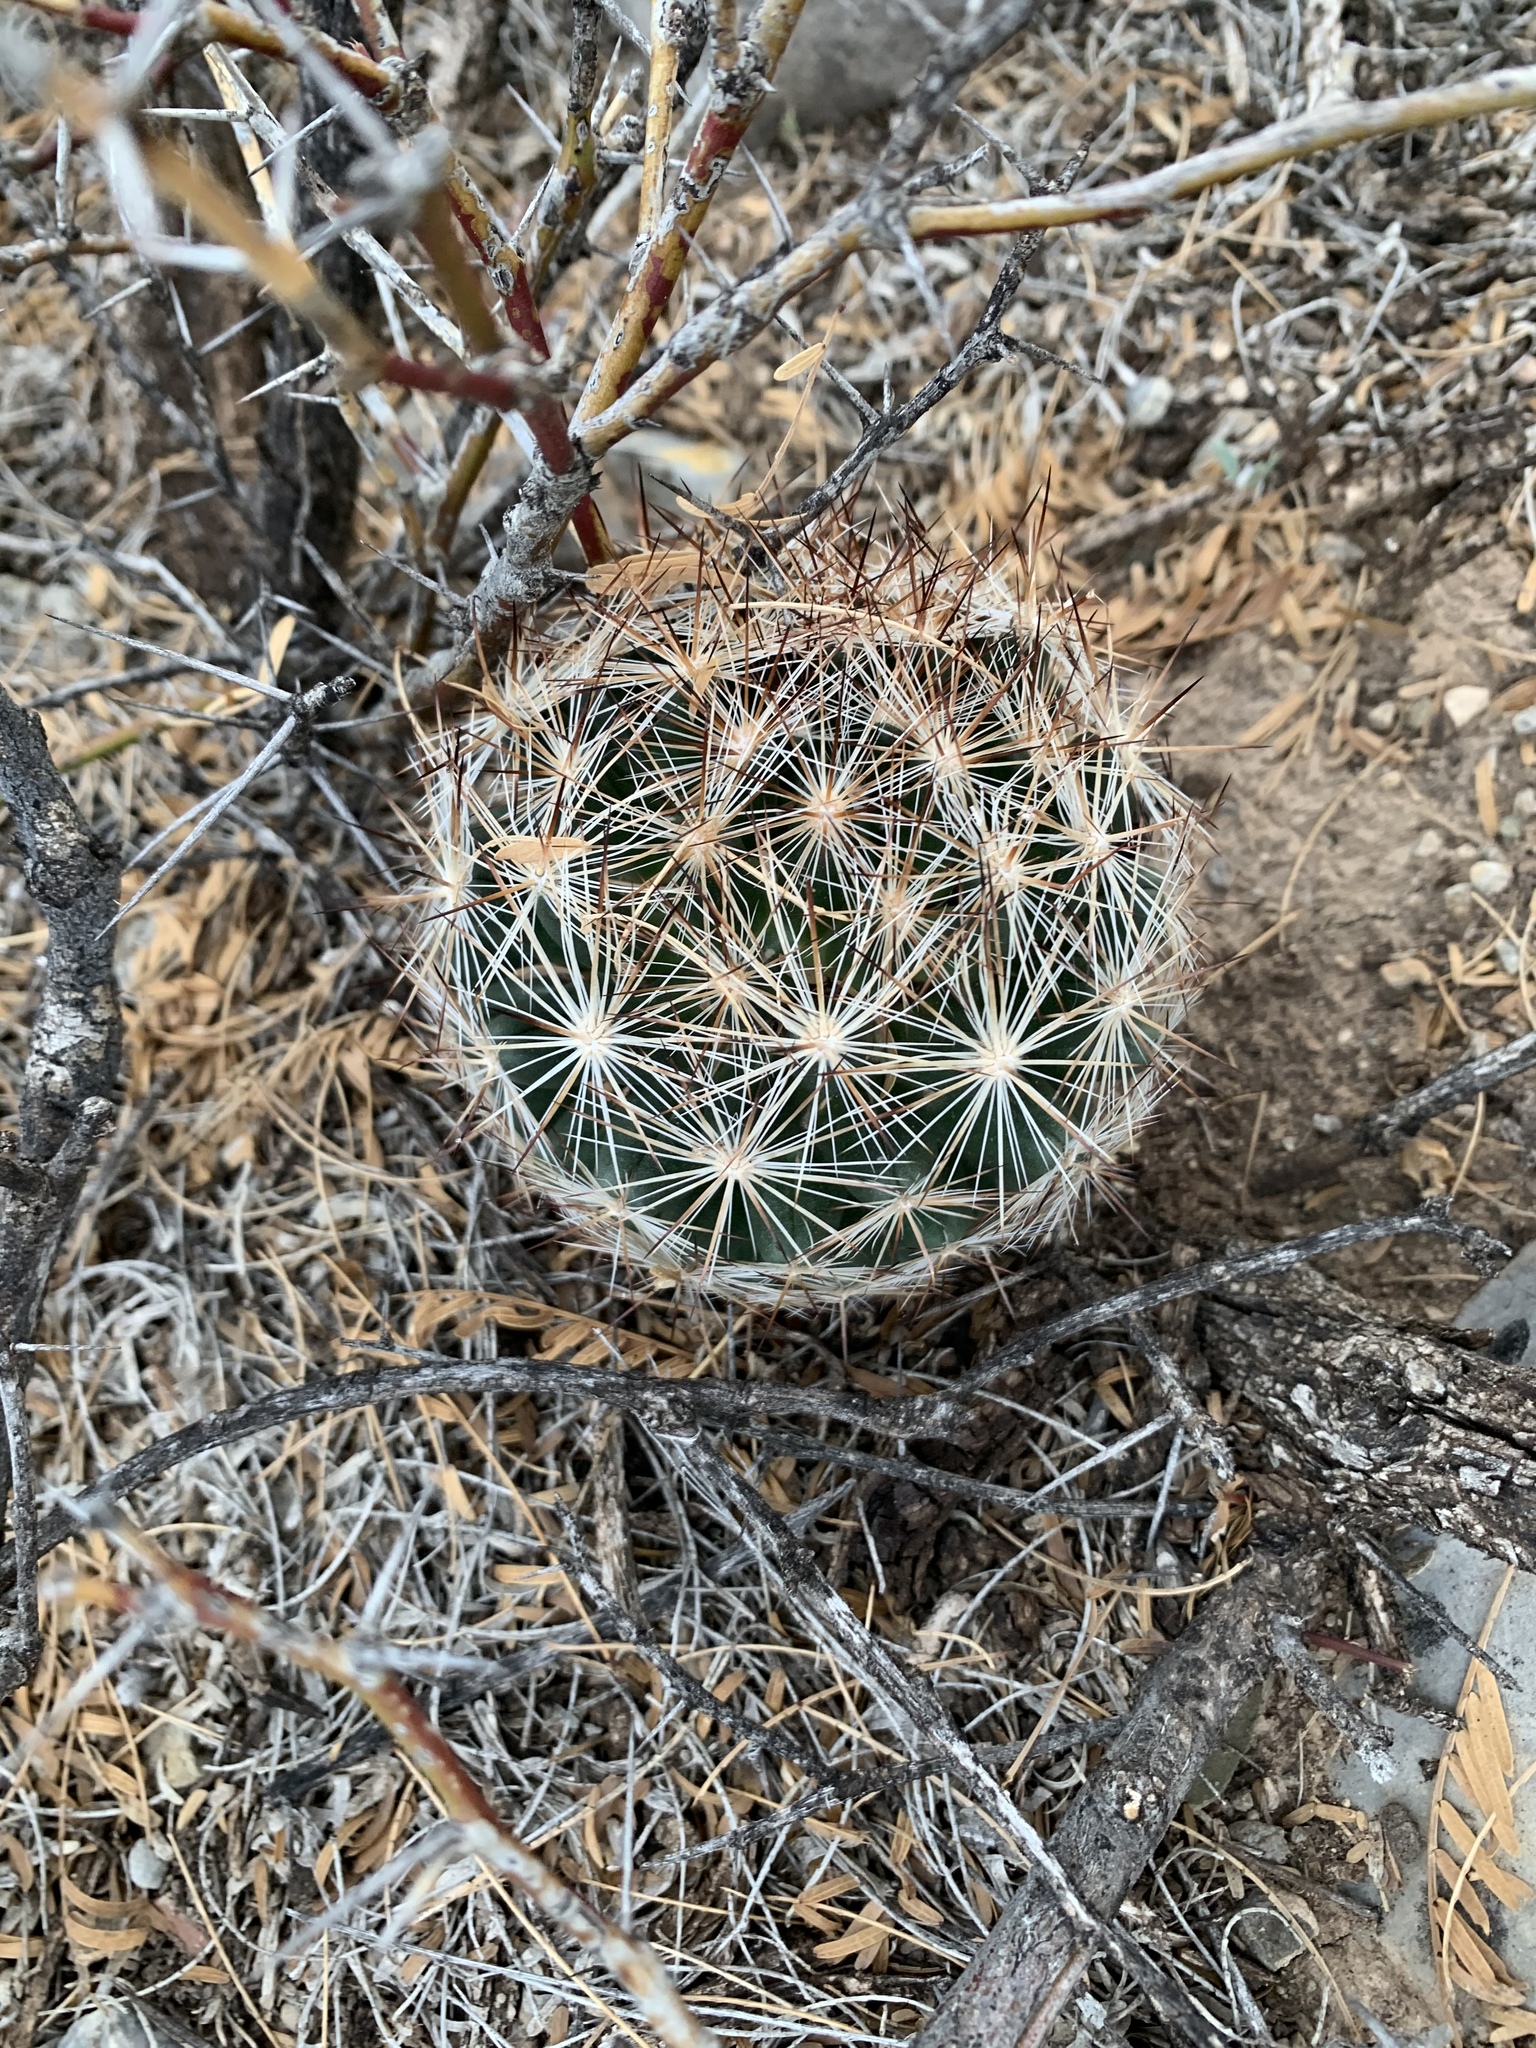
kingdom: Plantae
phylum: Tracheophyta
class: Magnoliopsida
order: Caryophyllales
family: Cactaceae
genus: Pelecyphora
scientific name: Pelecyphora vivipara
